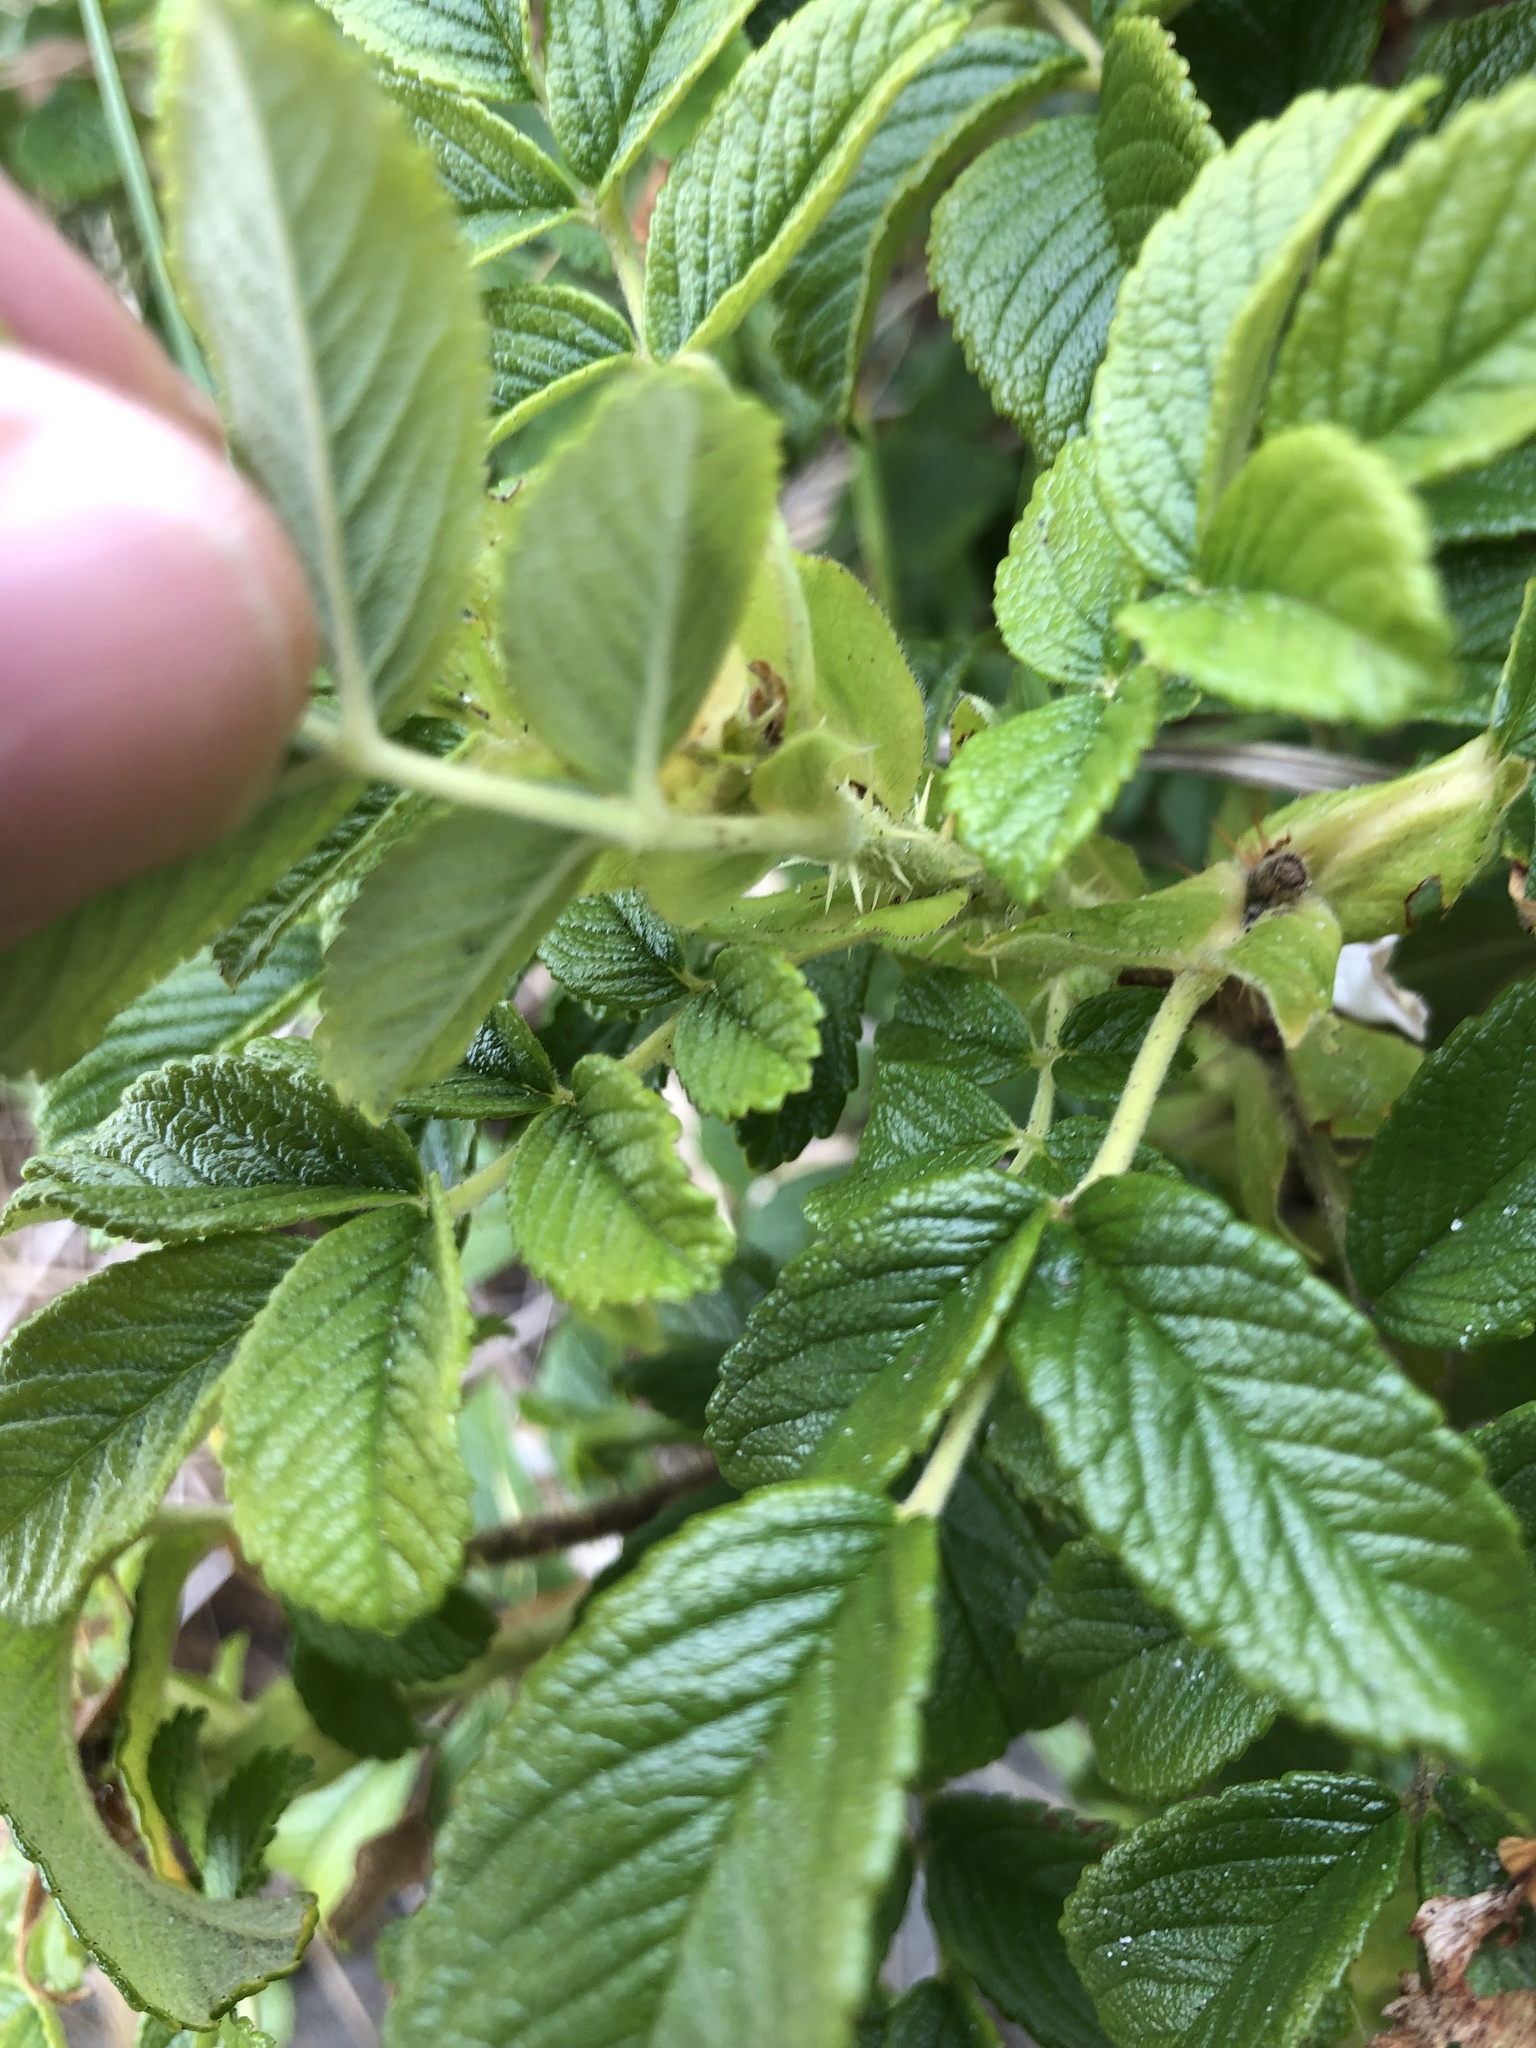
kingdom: Plantae
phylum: Tracheophyta
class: Magnoliopsida
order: Rosales
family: Rosaceae
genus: Rosa
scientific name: Rosa rugosa
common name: Japanese rose
